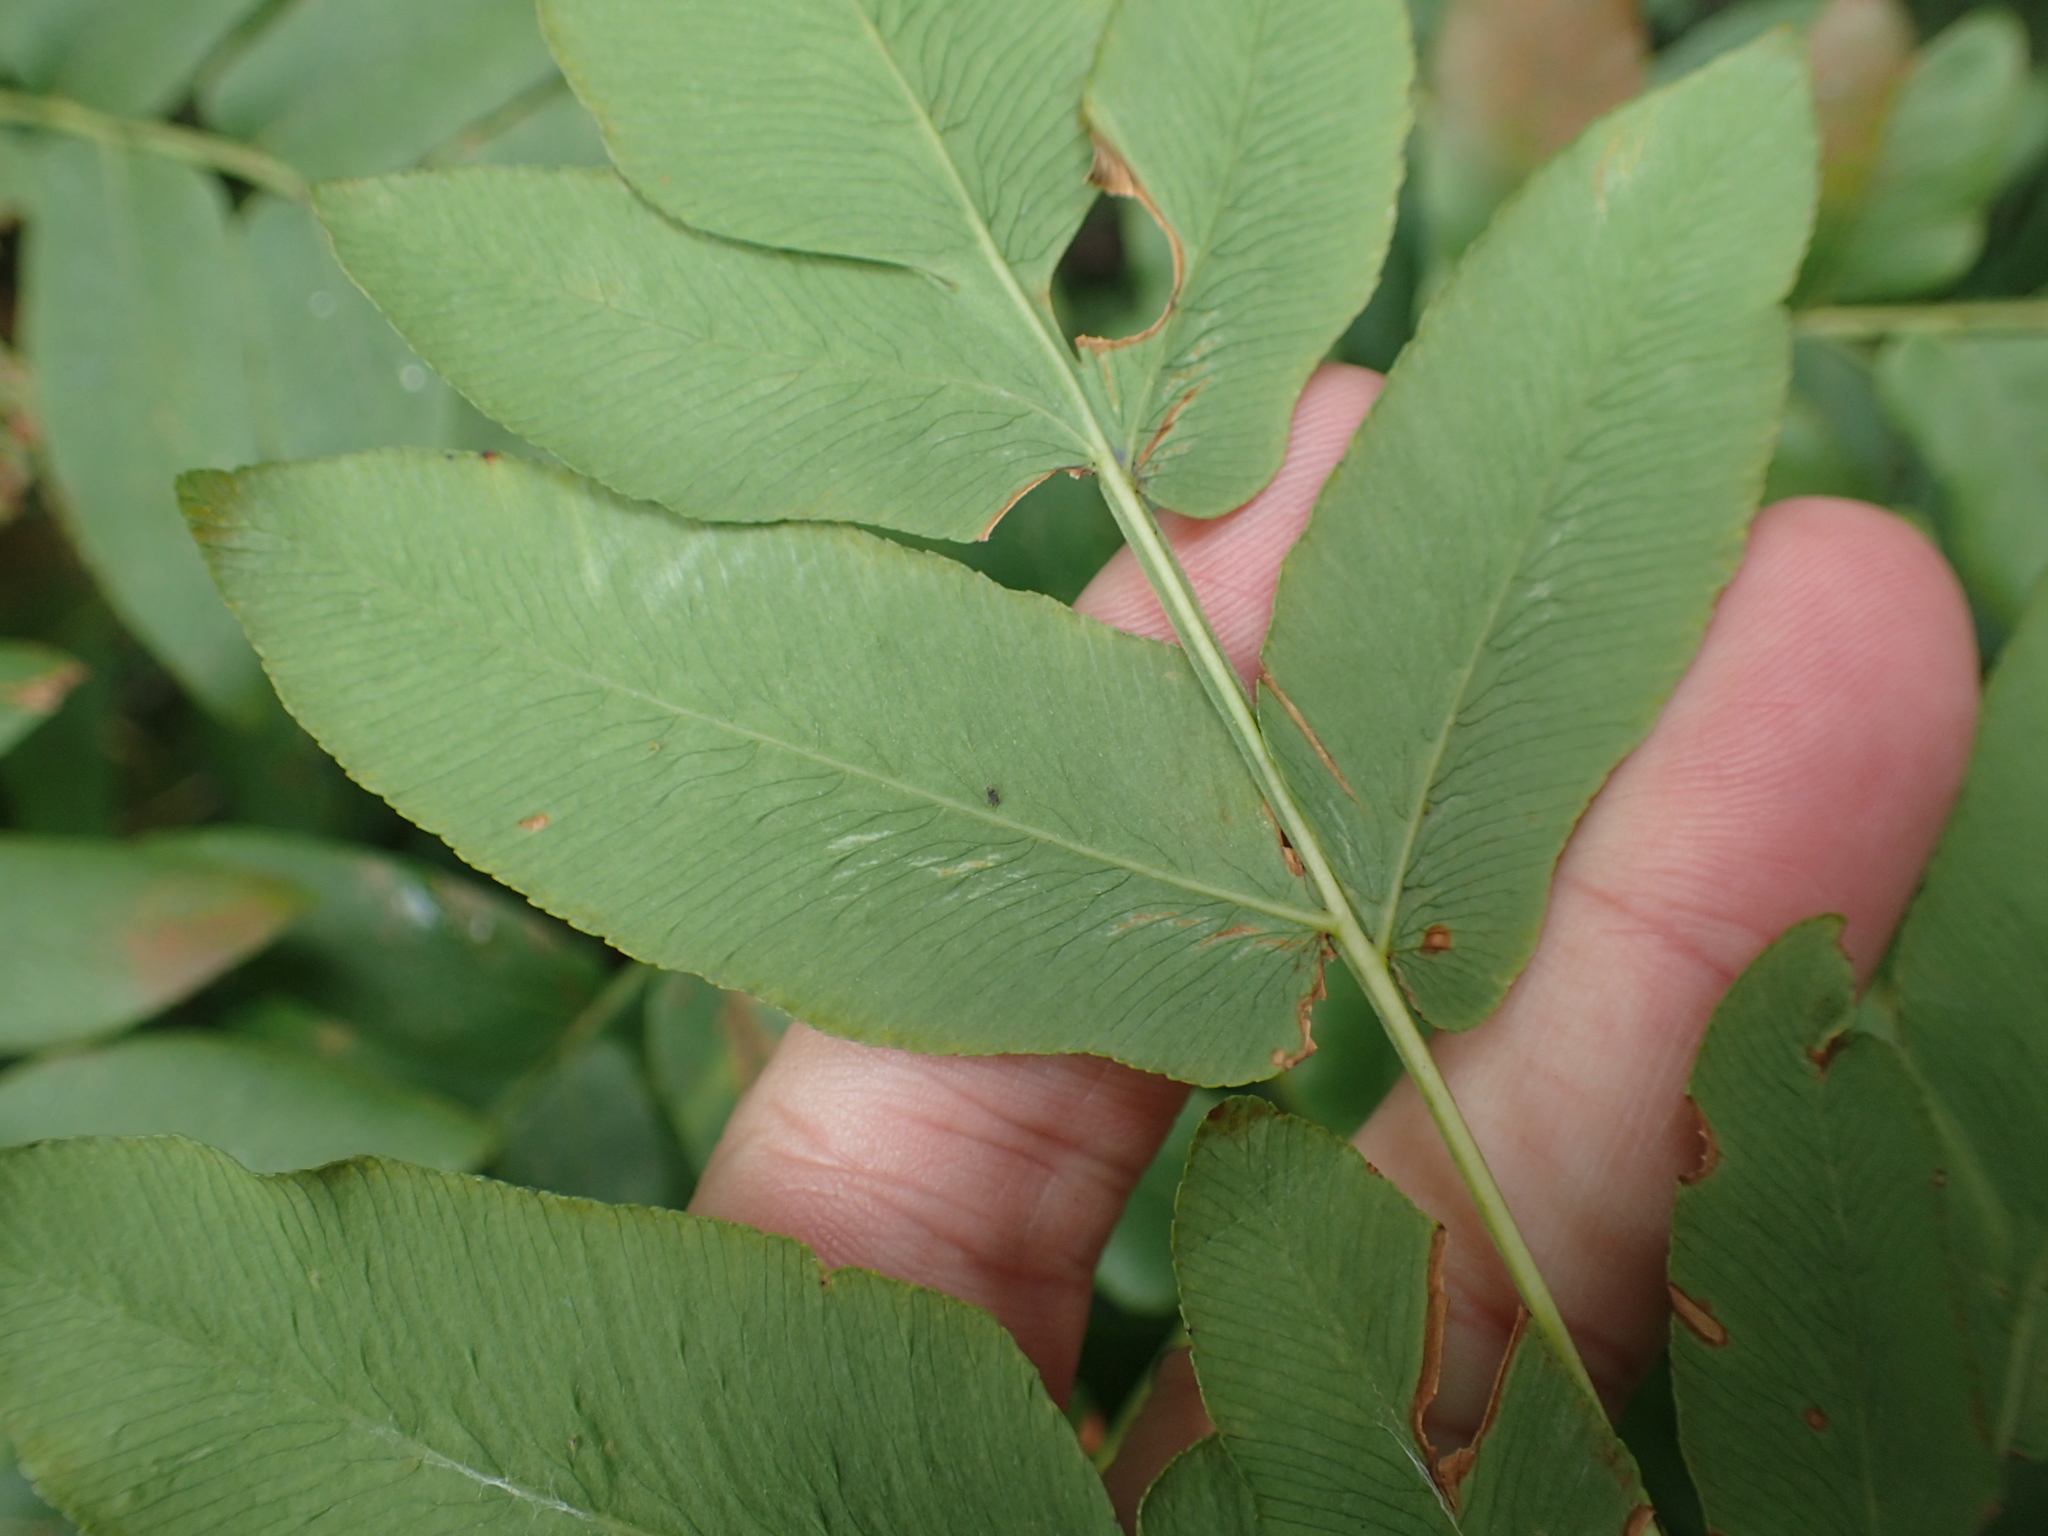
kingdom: Plantae
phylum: Tracheophyta
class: Polypodiopsida
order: Osmundales
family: Osmundaceae
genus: Osmunda
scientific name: Osmunda japonica
